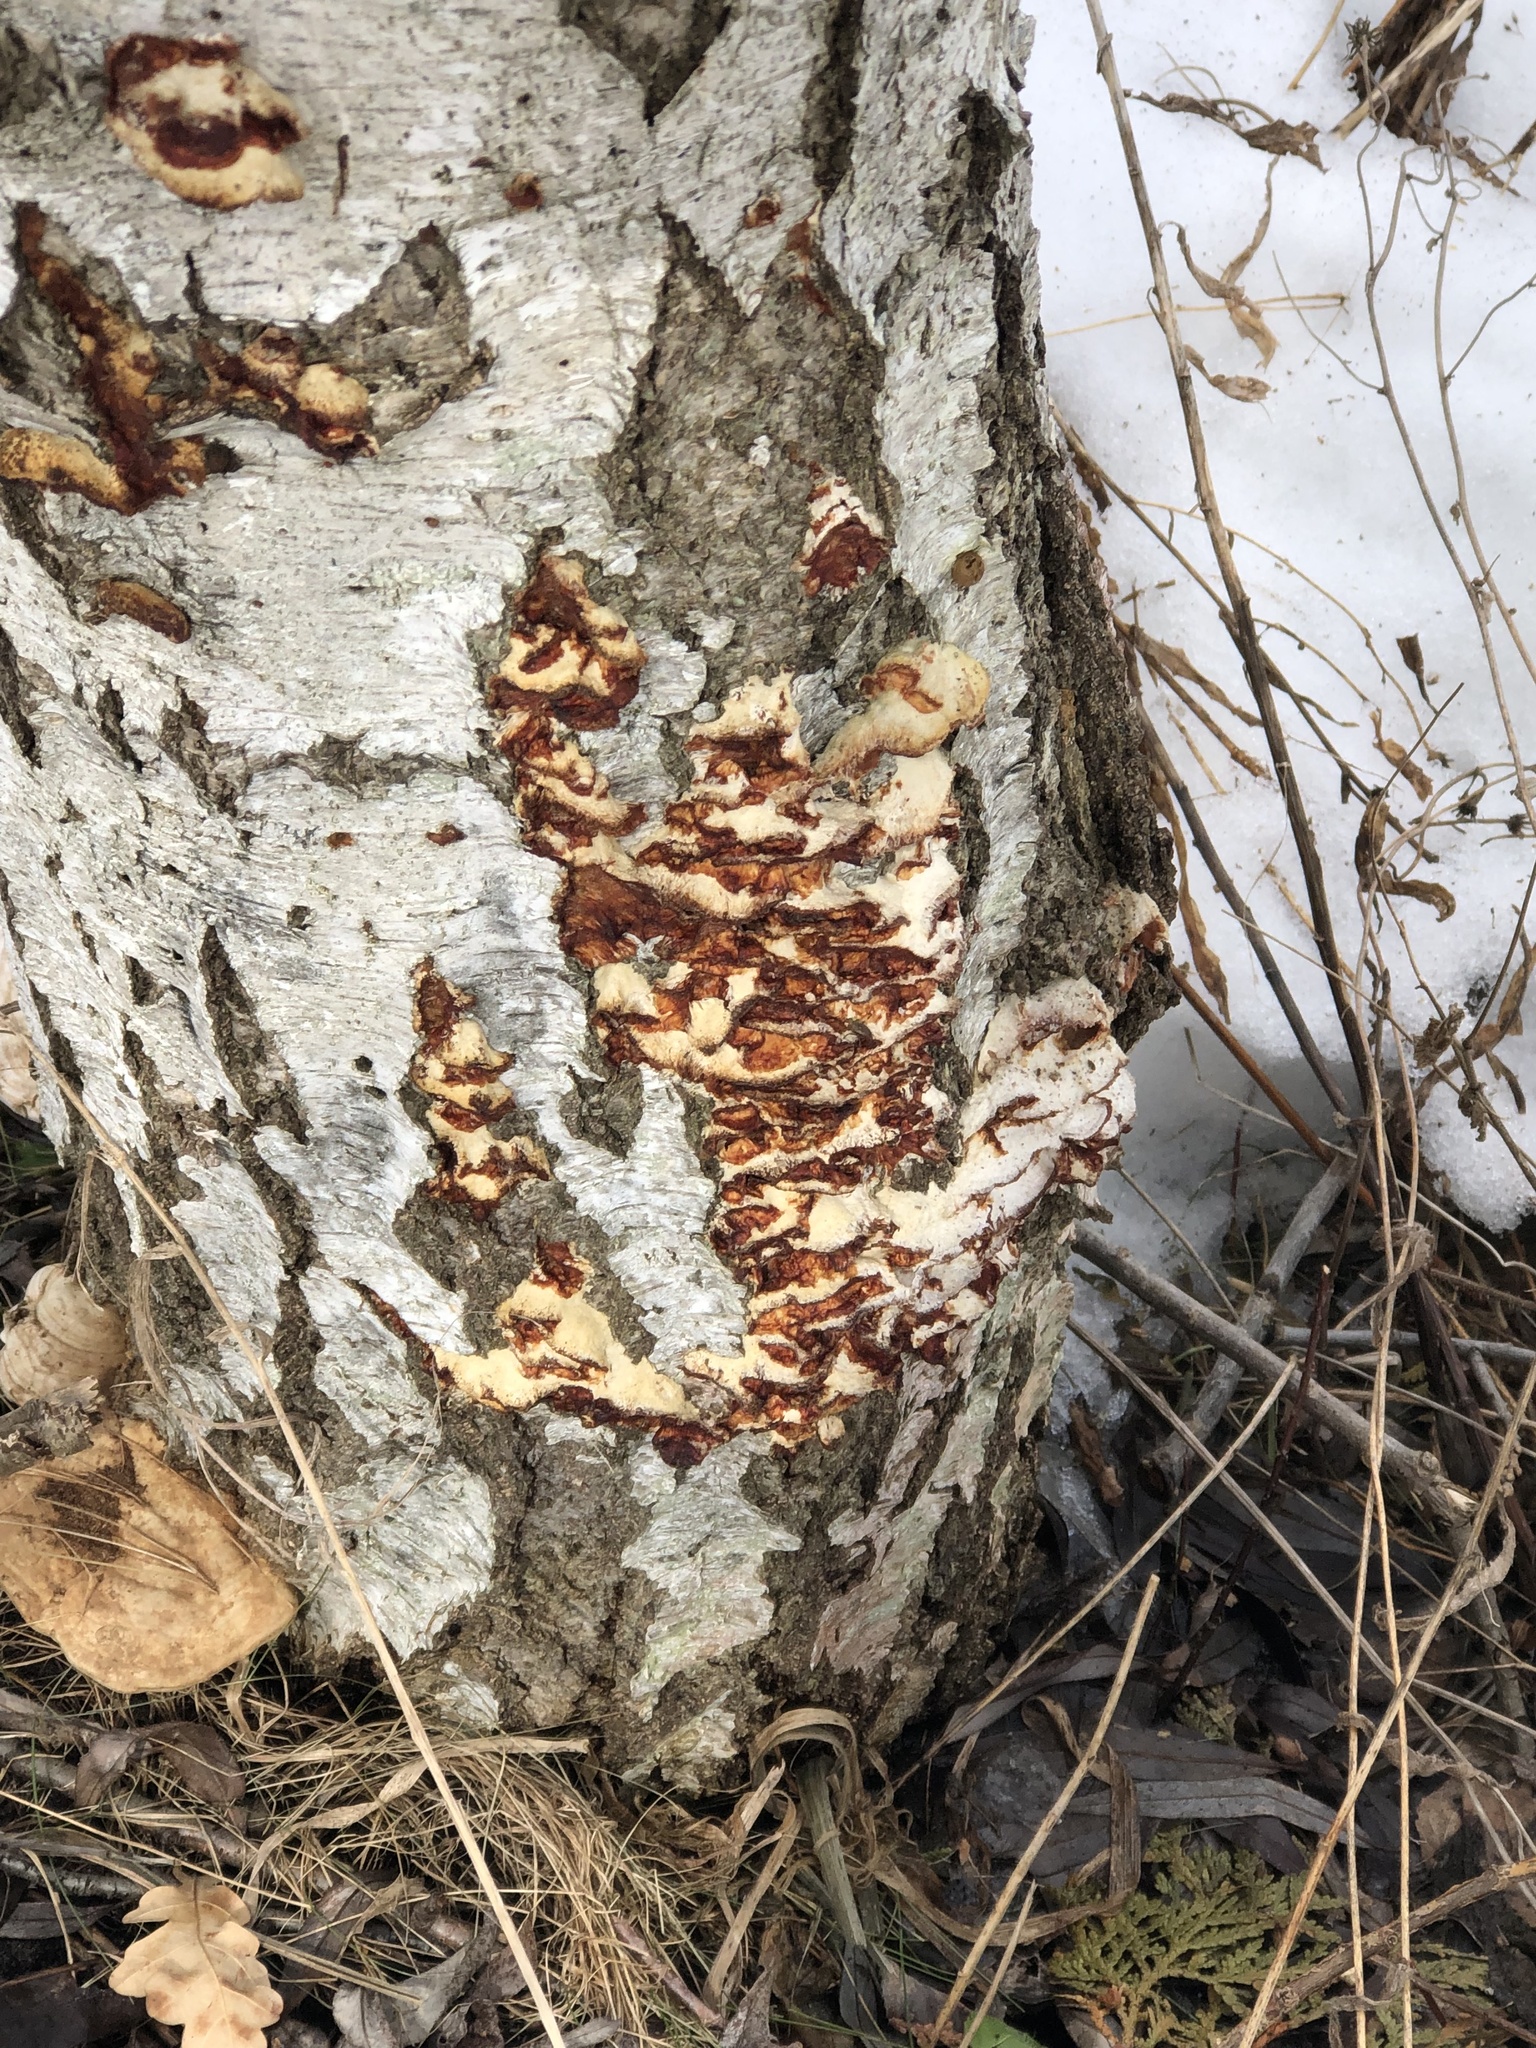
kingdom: Fungi
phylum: Basidiomycota
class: Agaricomycetes
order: Polyporales
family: Meruliaceae
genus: Phlebia
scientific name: Phlebia tremellosa
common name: Jelly rot
